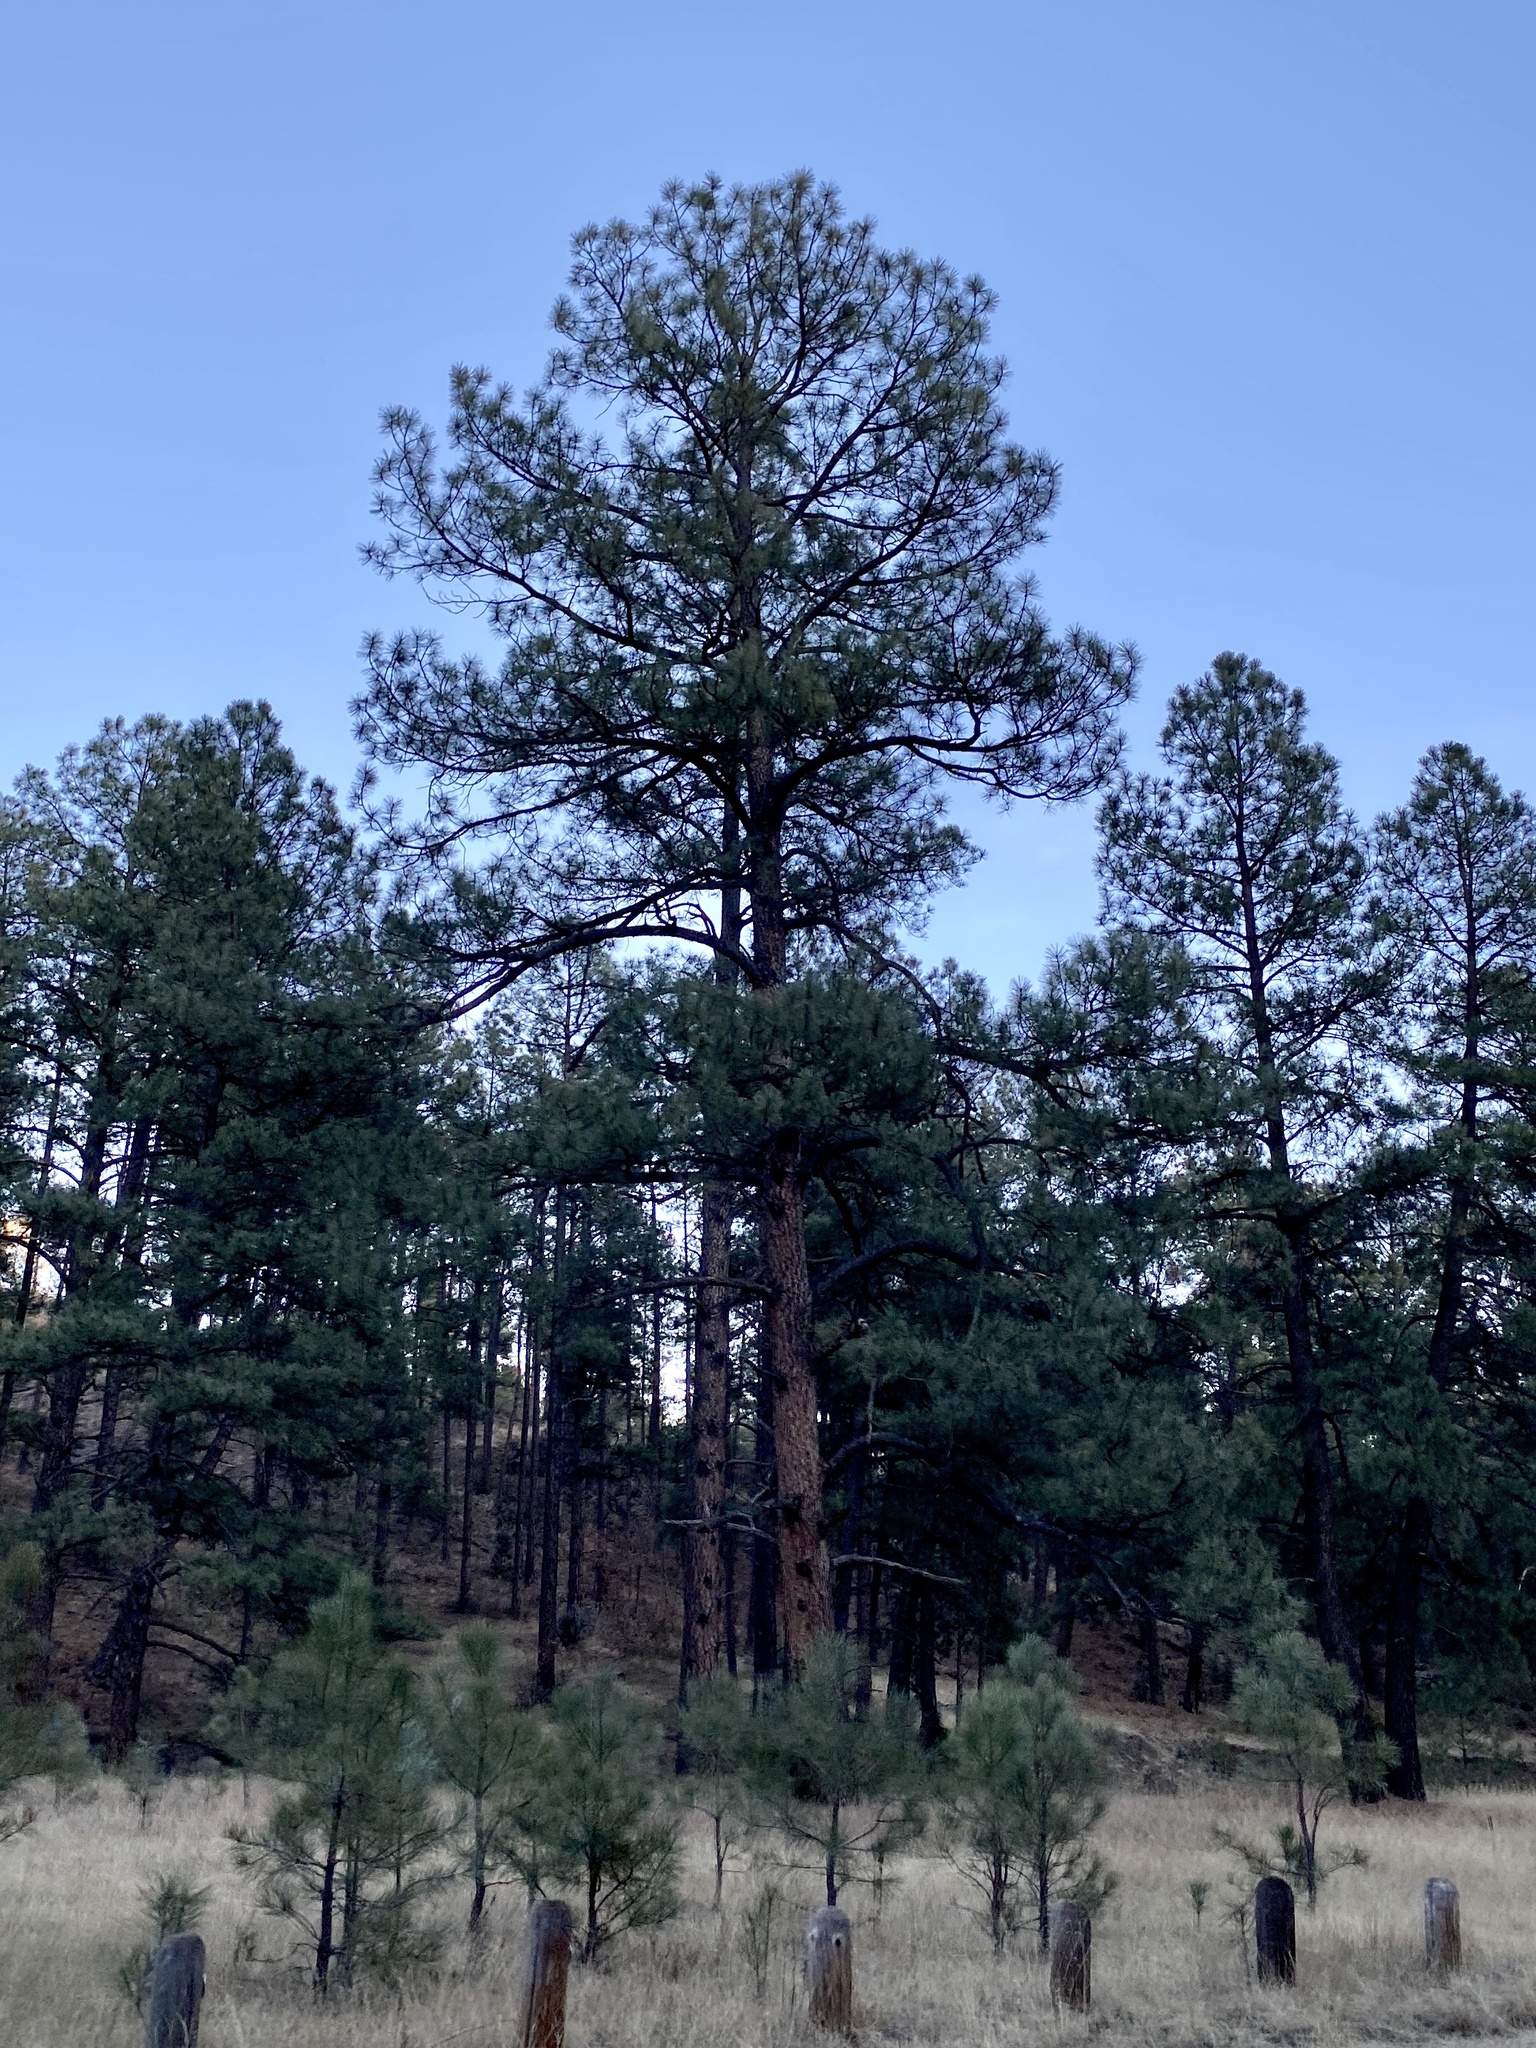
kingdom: Plantae
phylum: Tracheophyta
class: Pinopsida
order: Pinales
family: Pinaceae
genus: Pinus
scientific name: Pinus ponderosa
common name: Western yellow-pine
